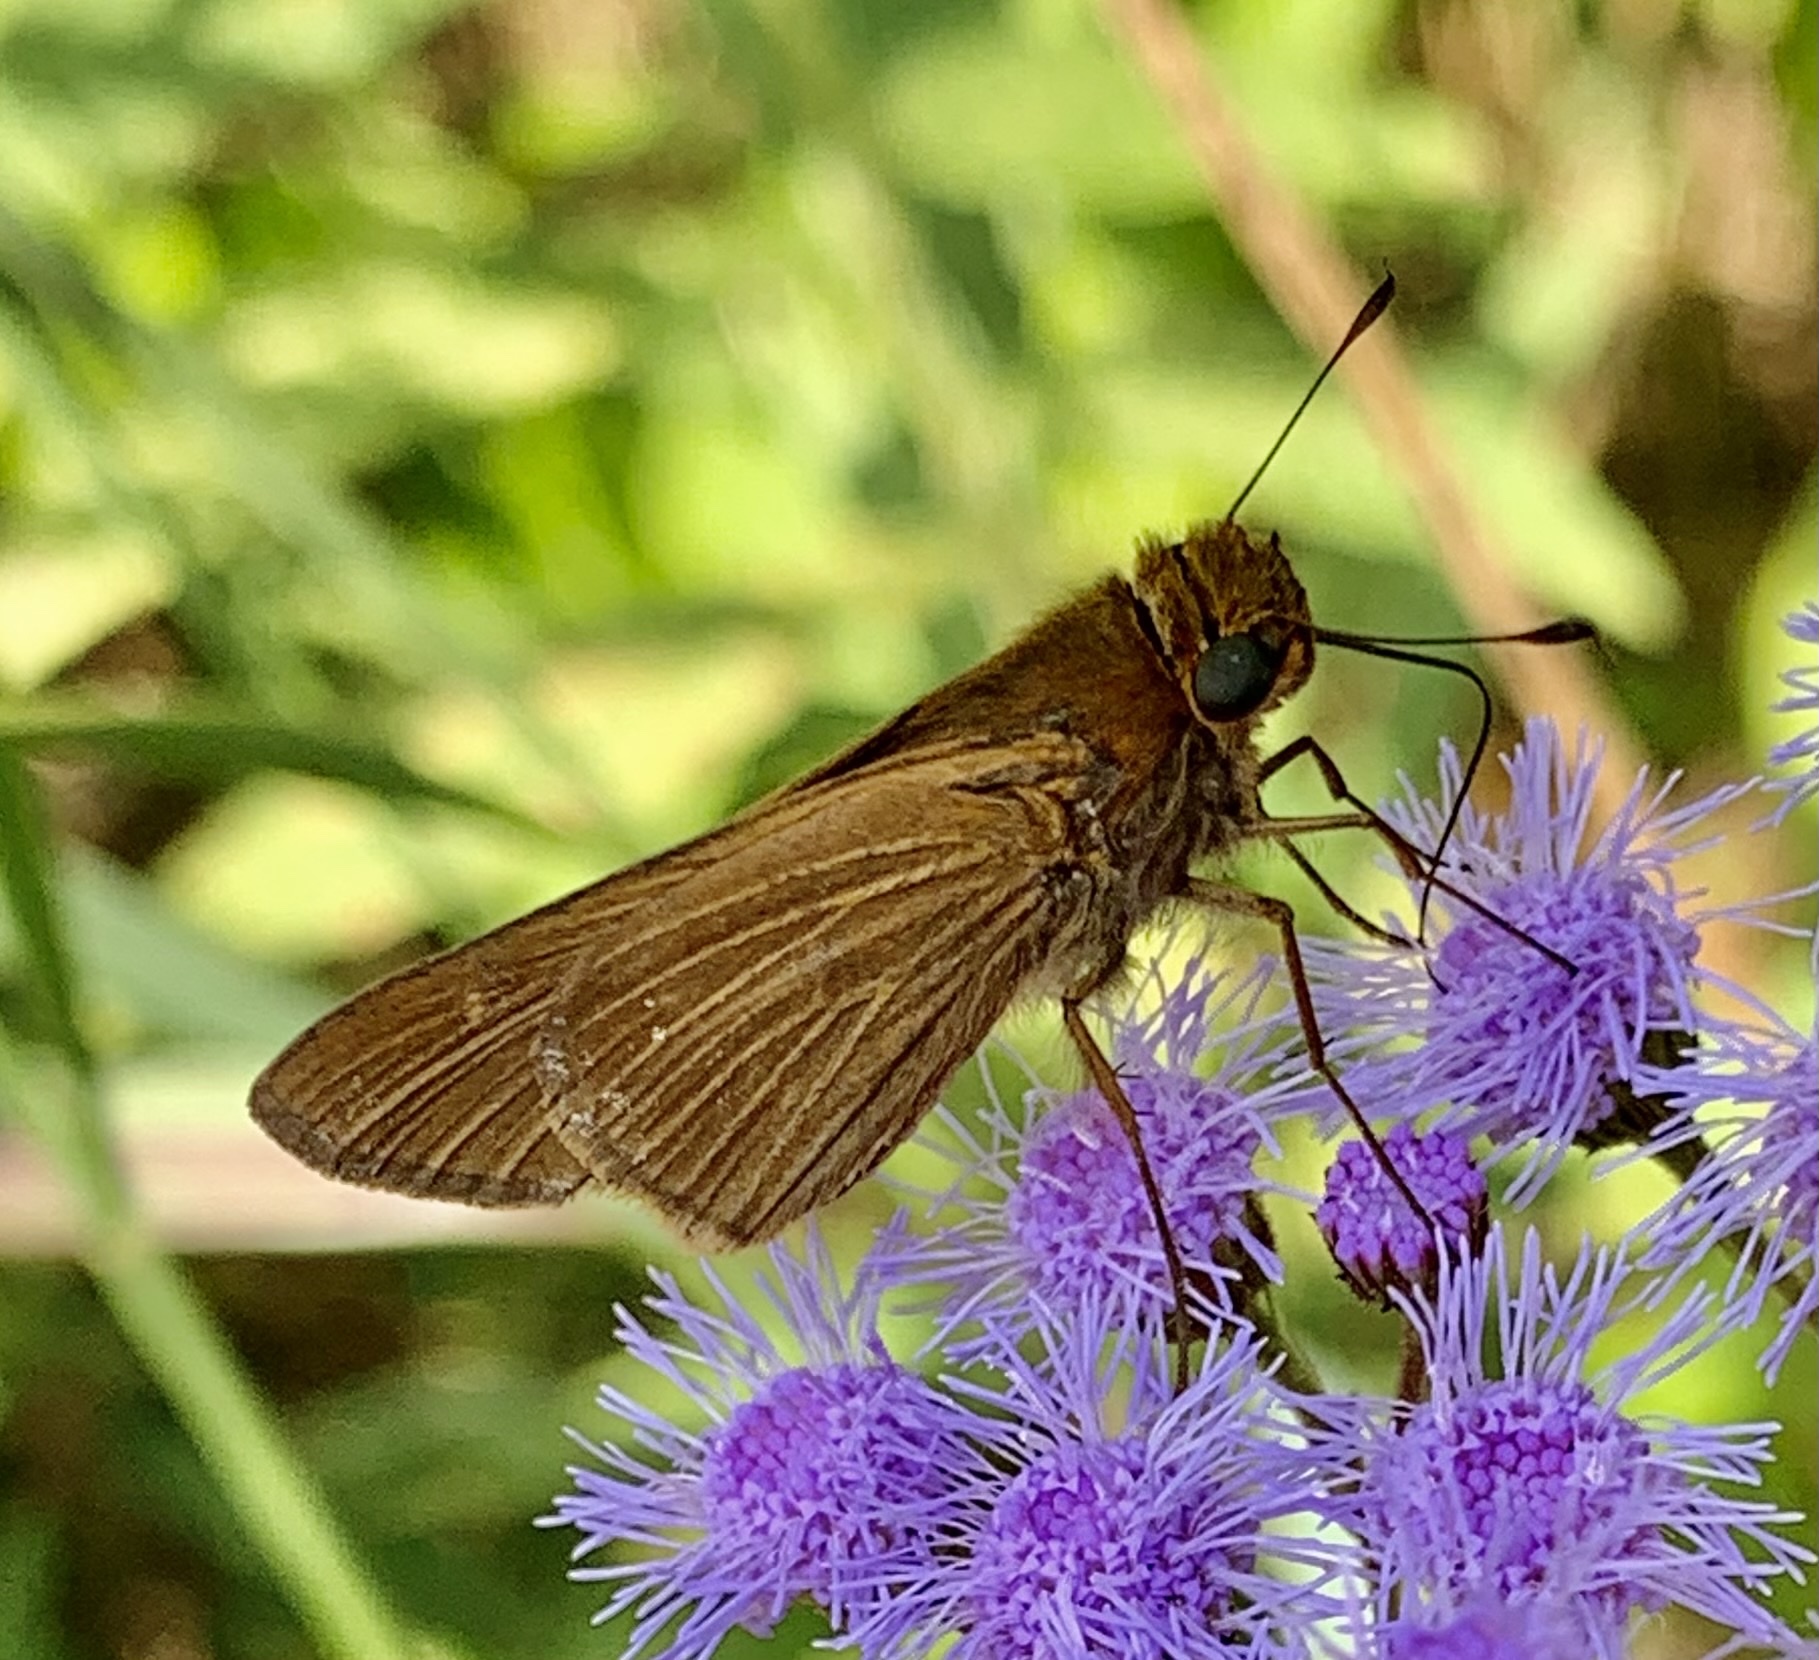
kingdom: Animalia
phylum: Arthropoda
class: Insecta
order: Lepidoptera
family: Hesperiidae
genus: Panoquina
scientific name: Panoquina ocola
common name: Ocola skipper
